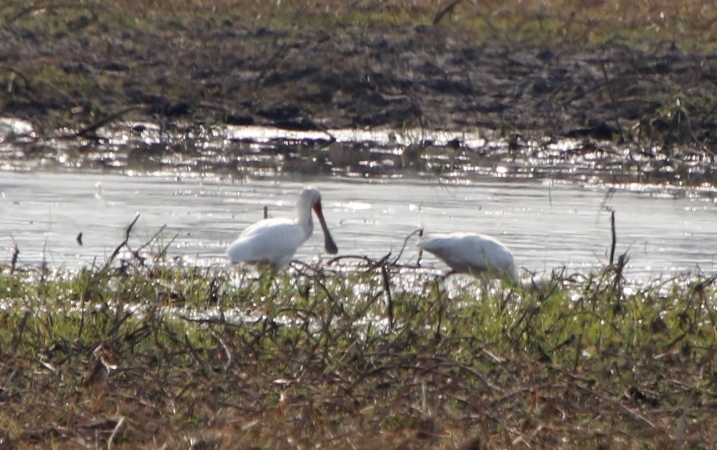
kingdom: Animalia
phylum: Chordata
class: Aves
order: Pelecaniformes
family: Threskiornithidae
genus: Platalea
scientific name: Platalea alba
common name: African spoonbill
